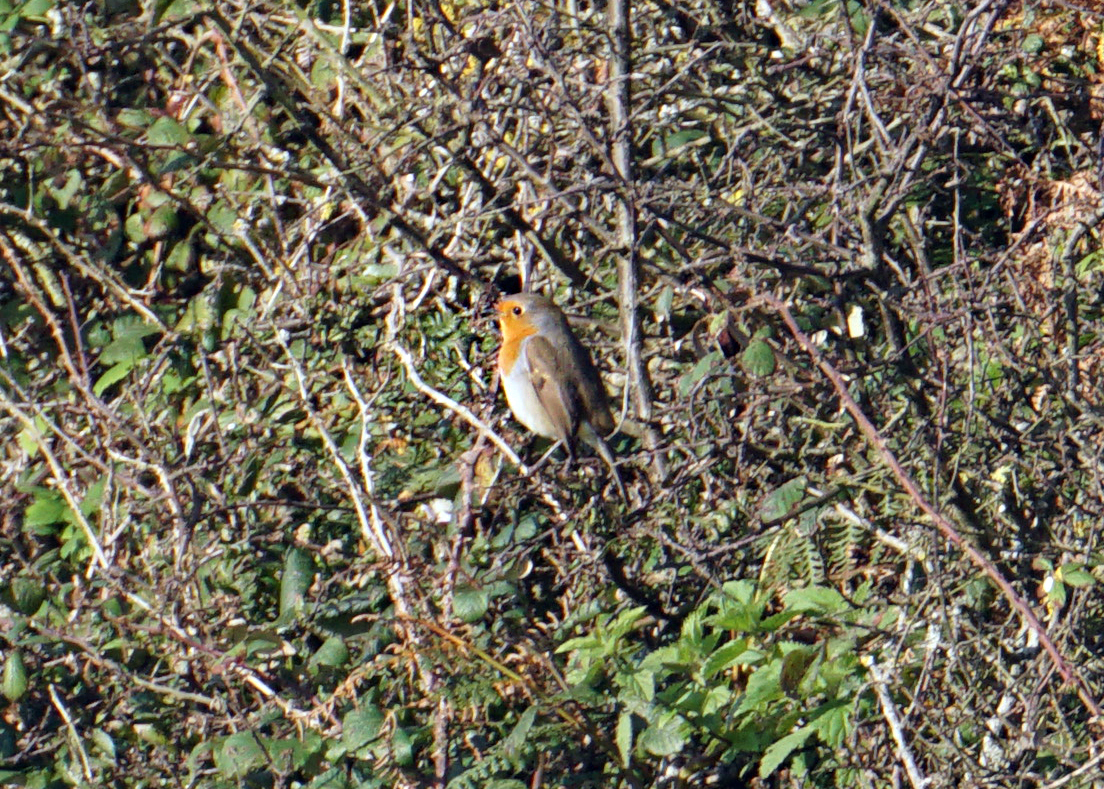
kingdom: Animalia
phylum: Chordata
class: Aves
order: Passeriformes
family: Muscicapidae
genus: Erithacus
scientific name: Erithacus rubecula
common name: European robin
